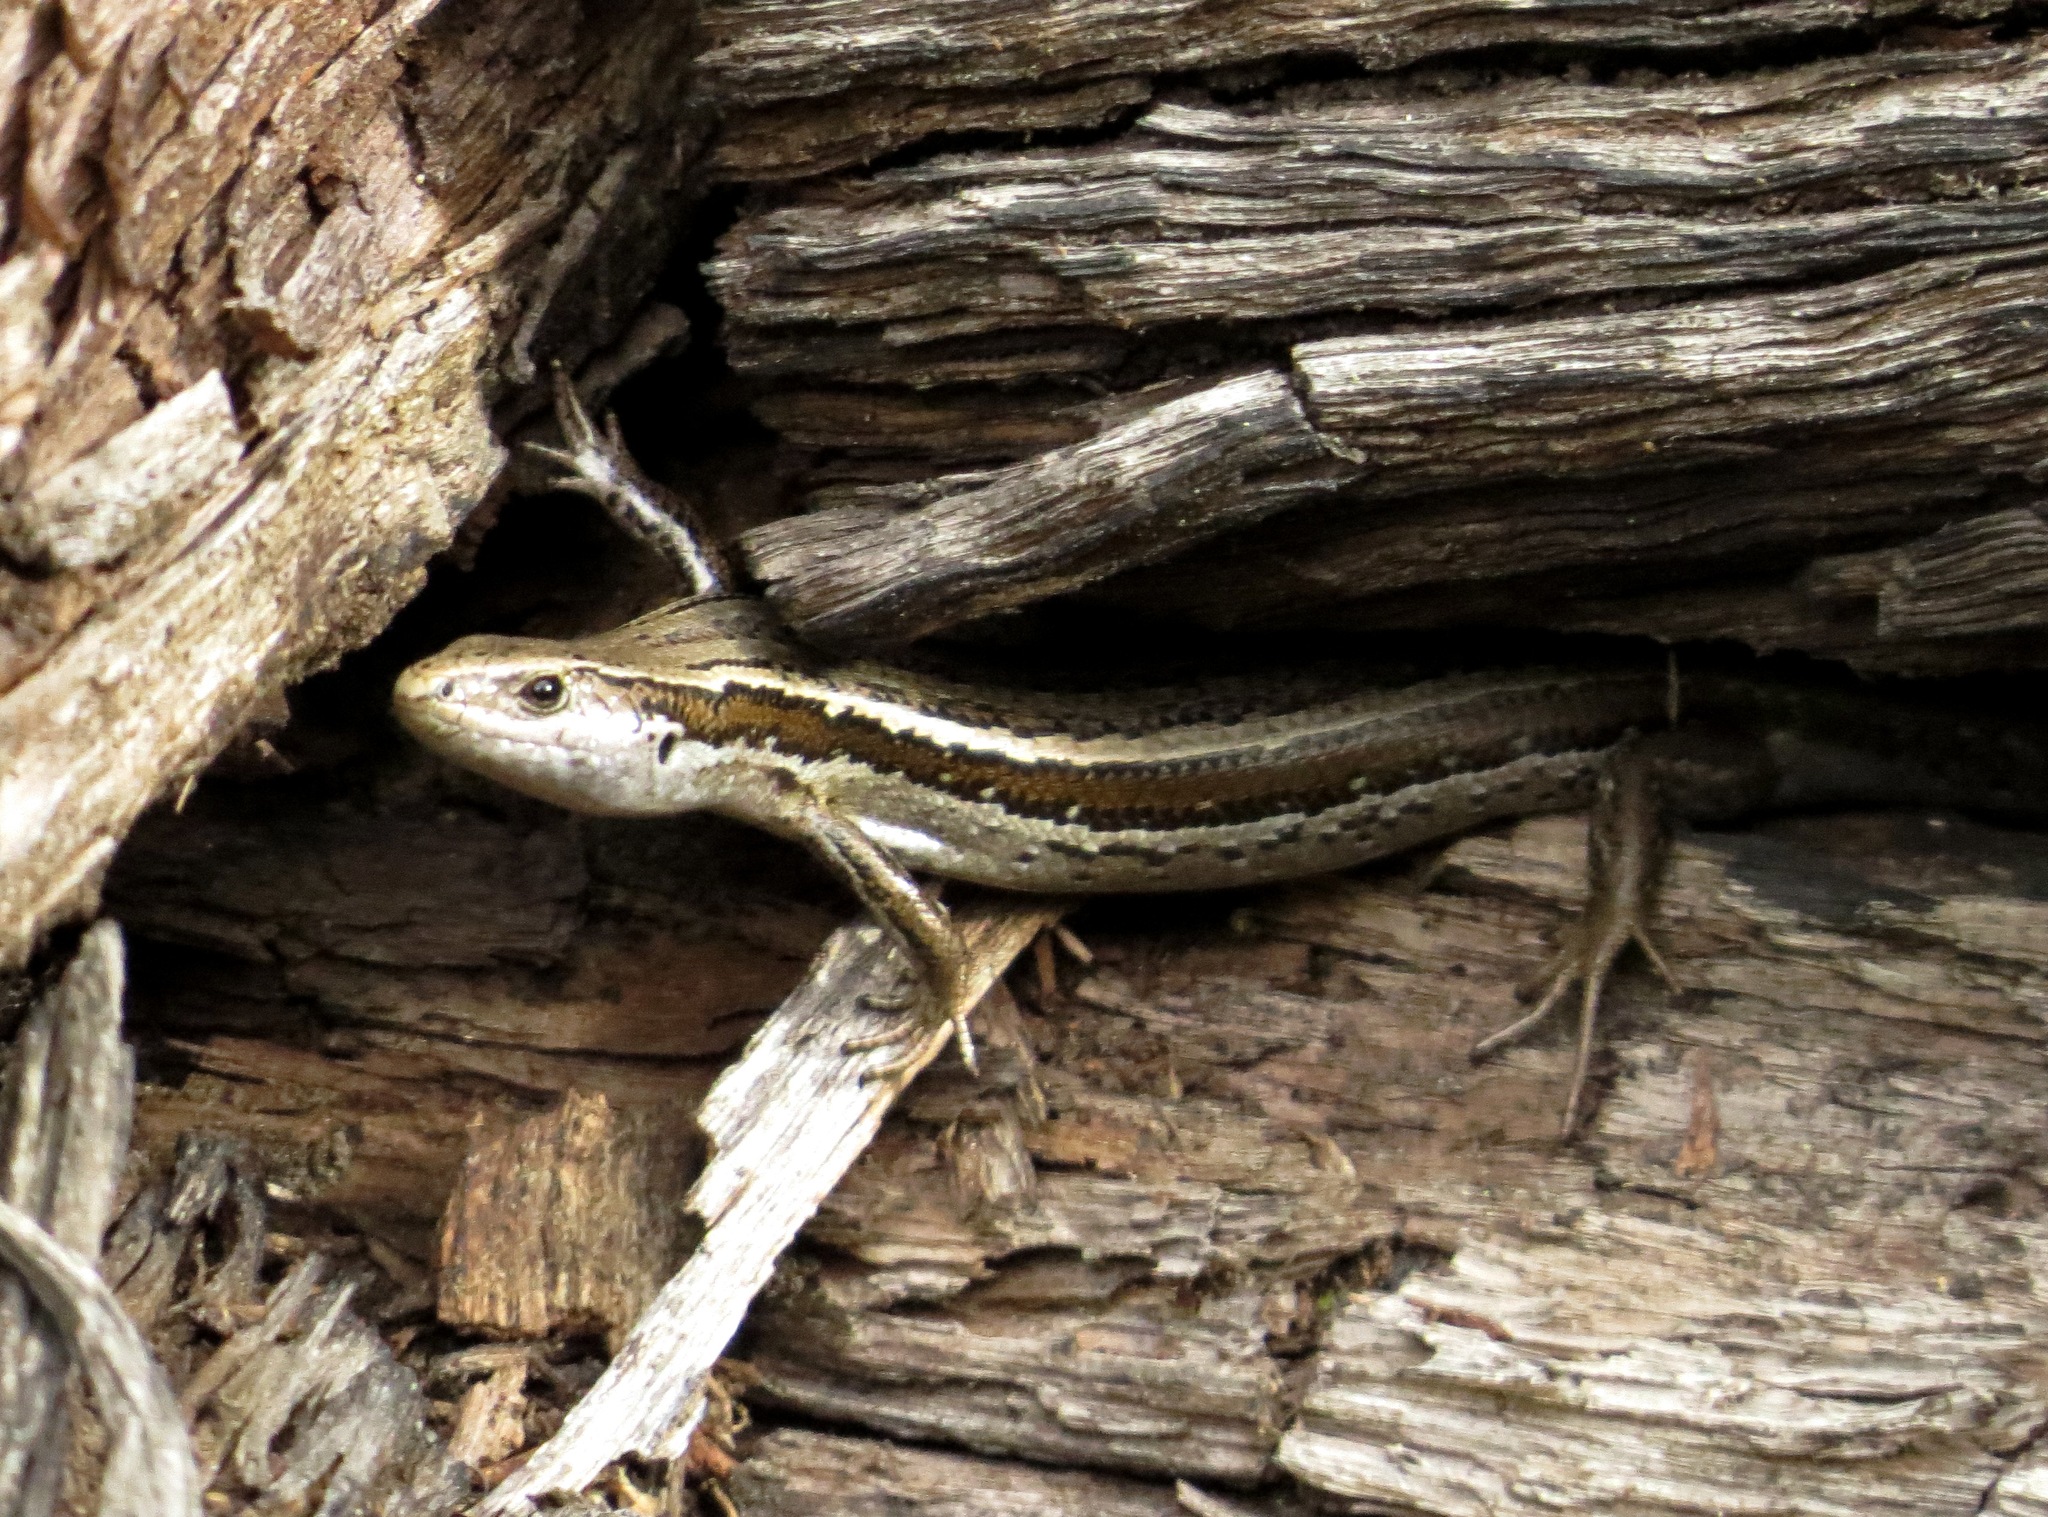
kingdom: Animalia
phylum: Chordata
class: Squamata
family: Scincidae
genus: Oligosoma
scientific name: Oligosoma polychroma
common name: Common new zealand skink
